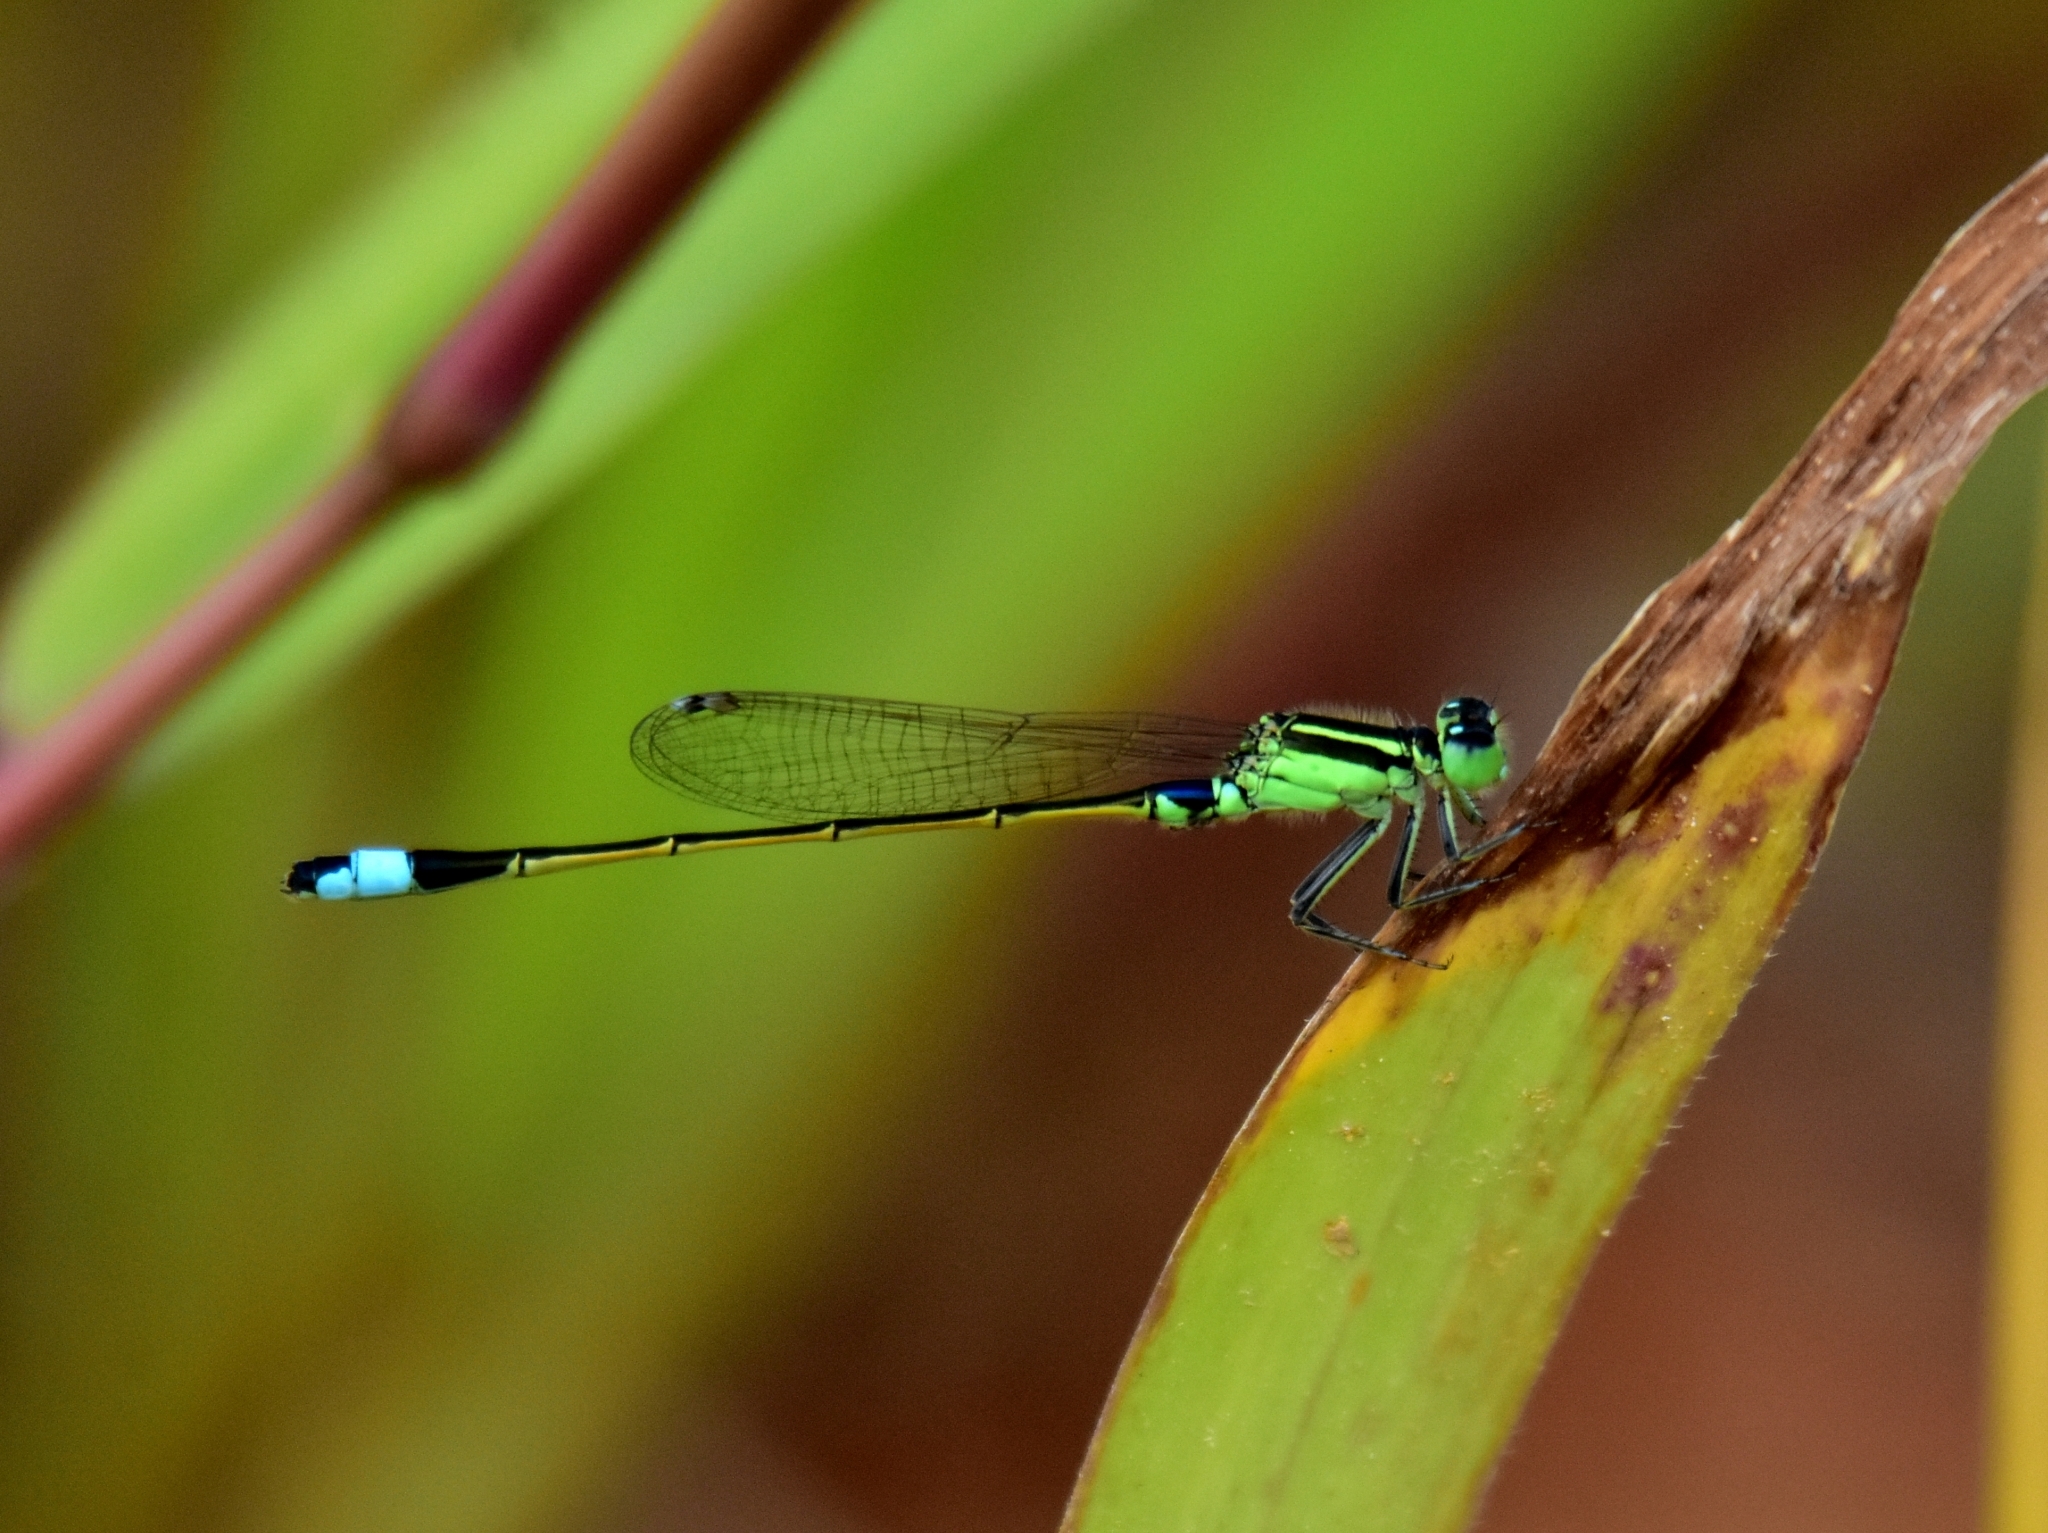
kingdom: Animalia
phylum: Arthropoda
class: Insecta
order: Odonata
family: Coenagrionidae
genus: Ischnura
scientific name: Ischnura senegalensis
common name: Tropical bluetail
